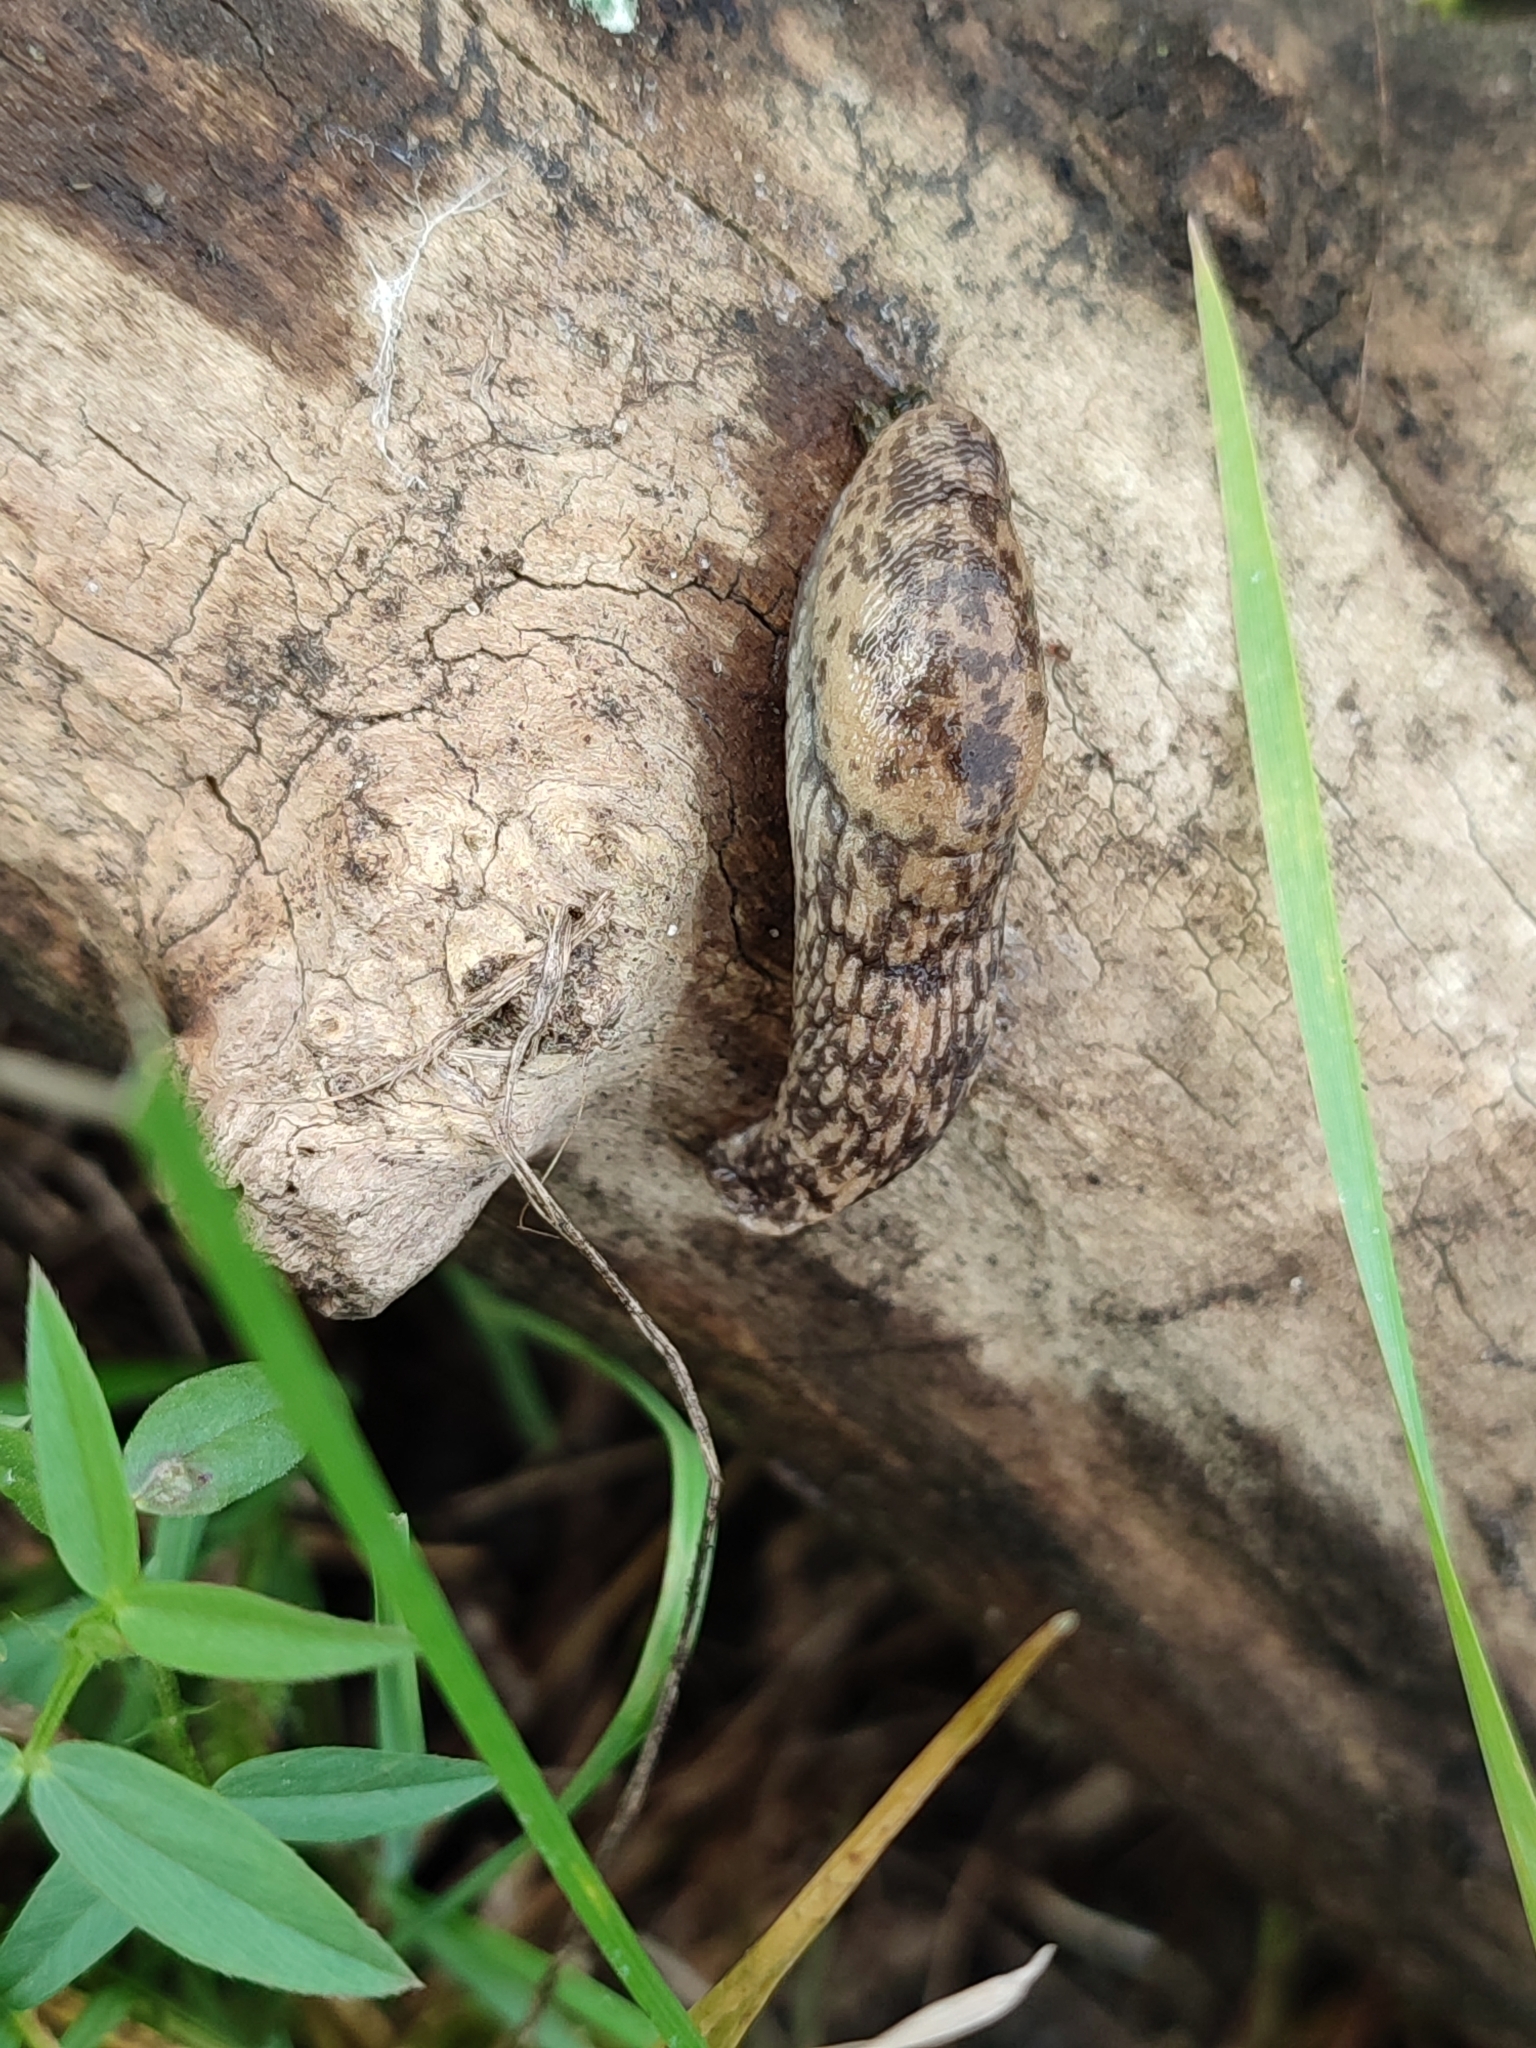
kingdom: Animalia
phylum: Mollusca
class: Gastropoda
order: Stylommatophora
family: Agriolimacidae
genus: Deroceras
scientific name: Deroceras reticulatum
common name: Gray field slug
